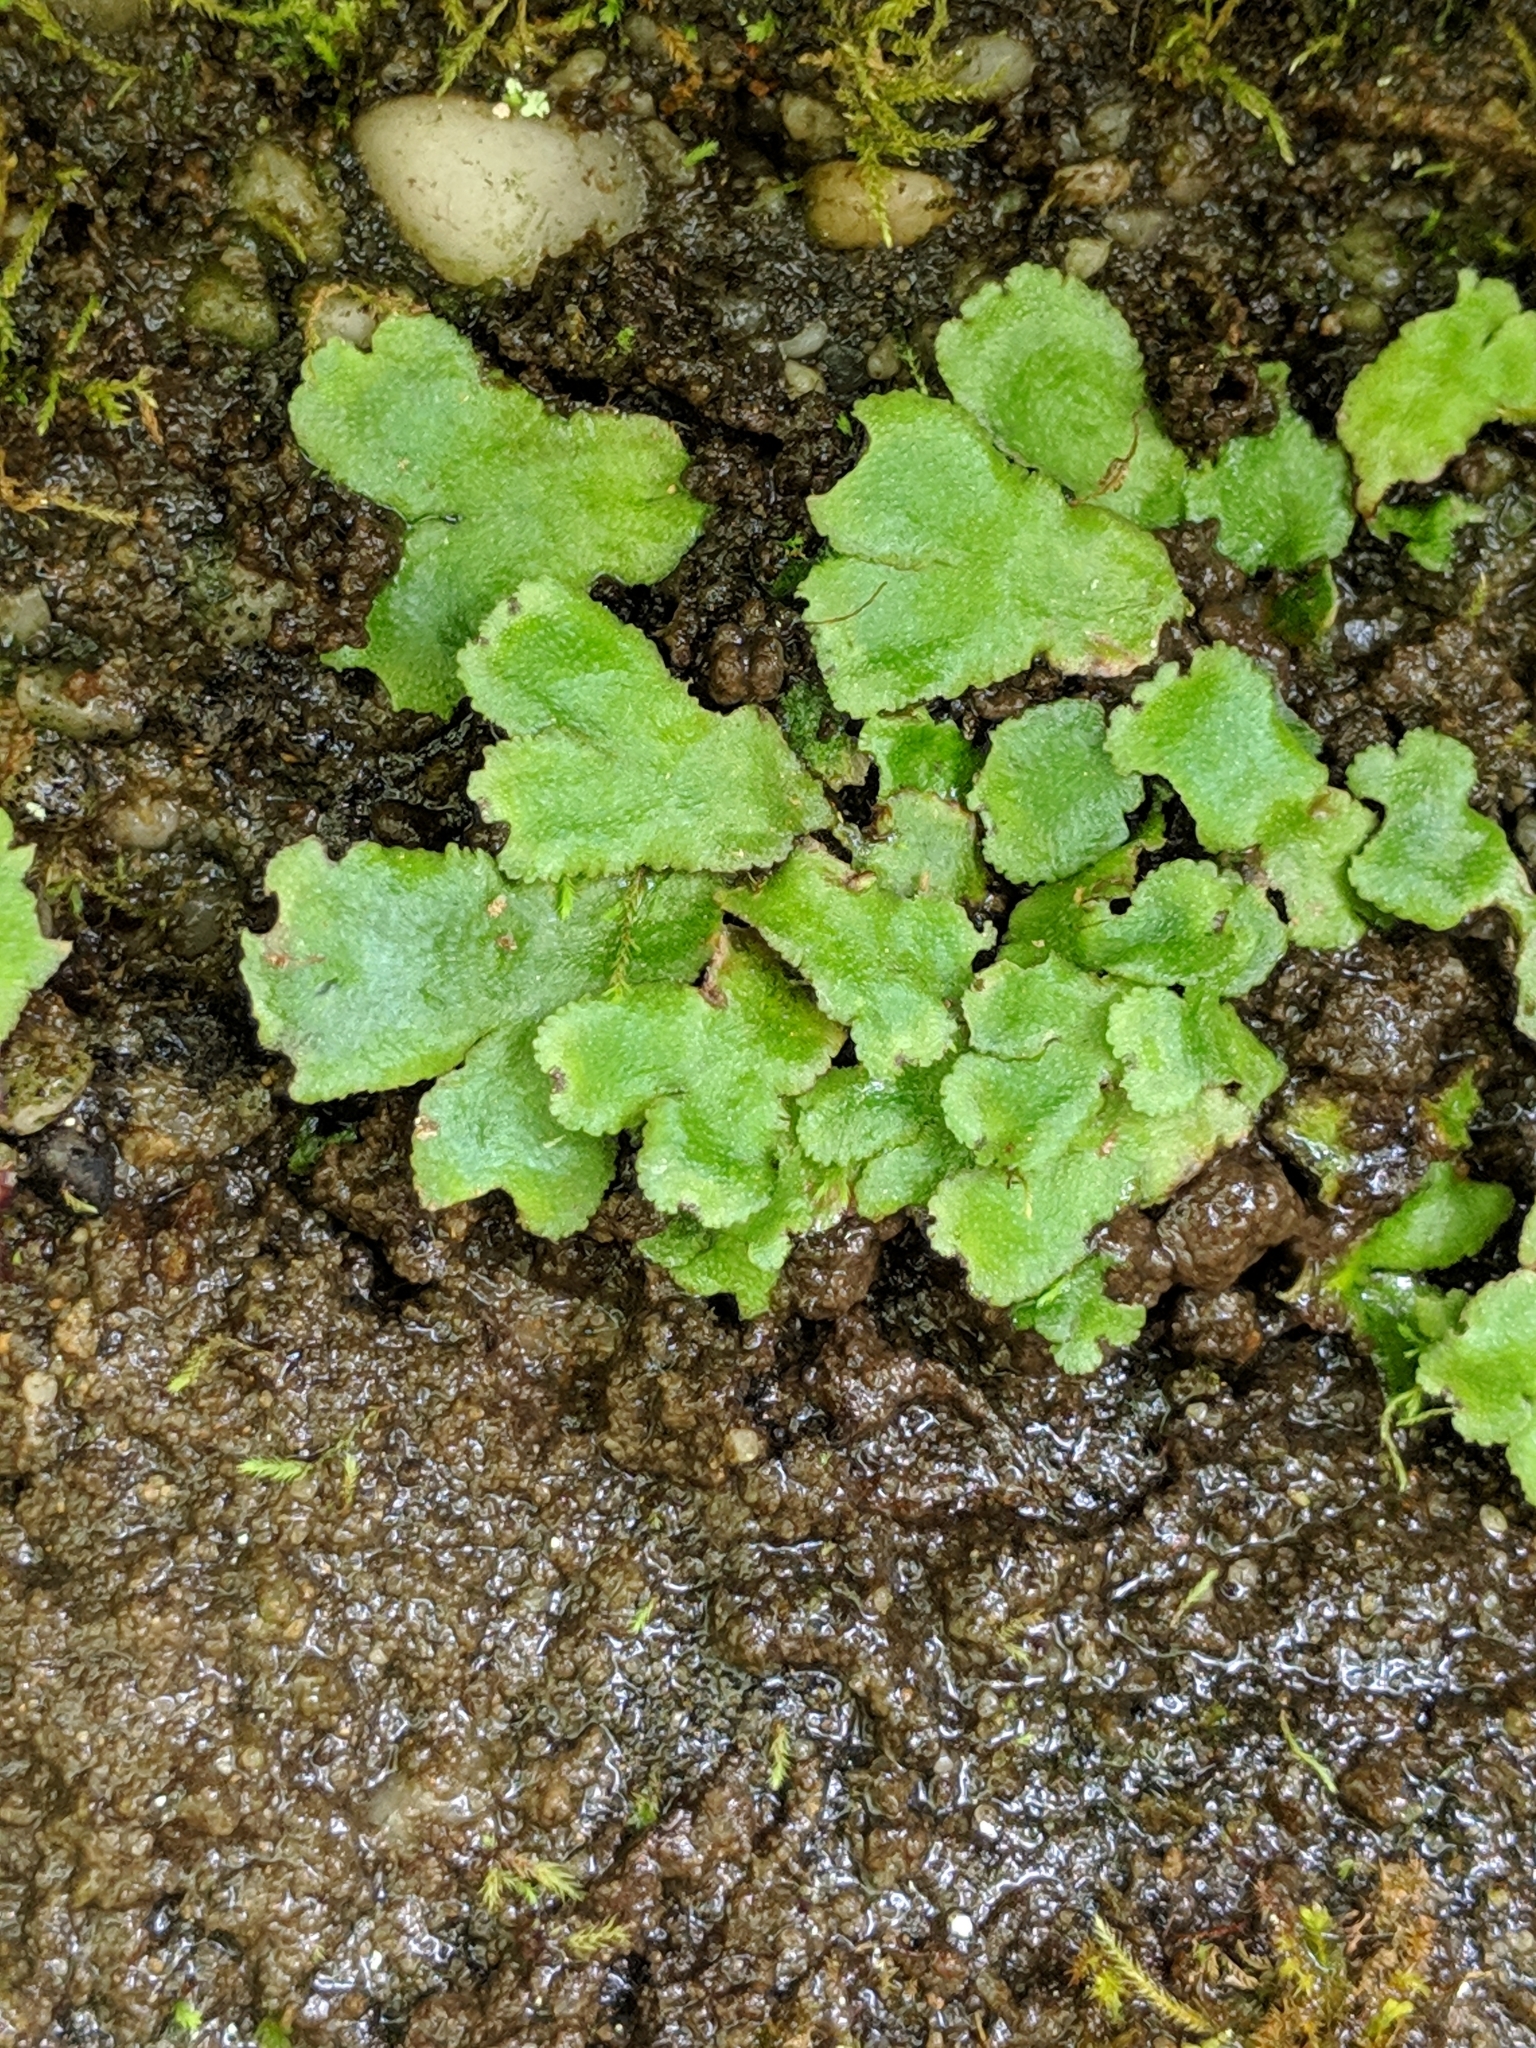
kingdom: Plantae
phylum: Marchantiophyta
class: Marchantiopsida
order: Marchantiales
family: Conocephalaceae
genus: Conocephalum
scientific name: Conocephalum salebrosum
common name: Cat-tongue liverwort
